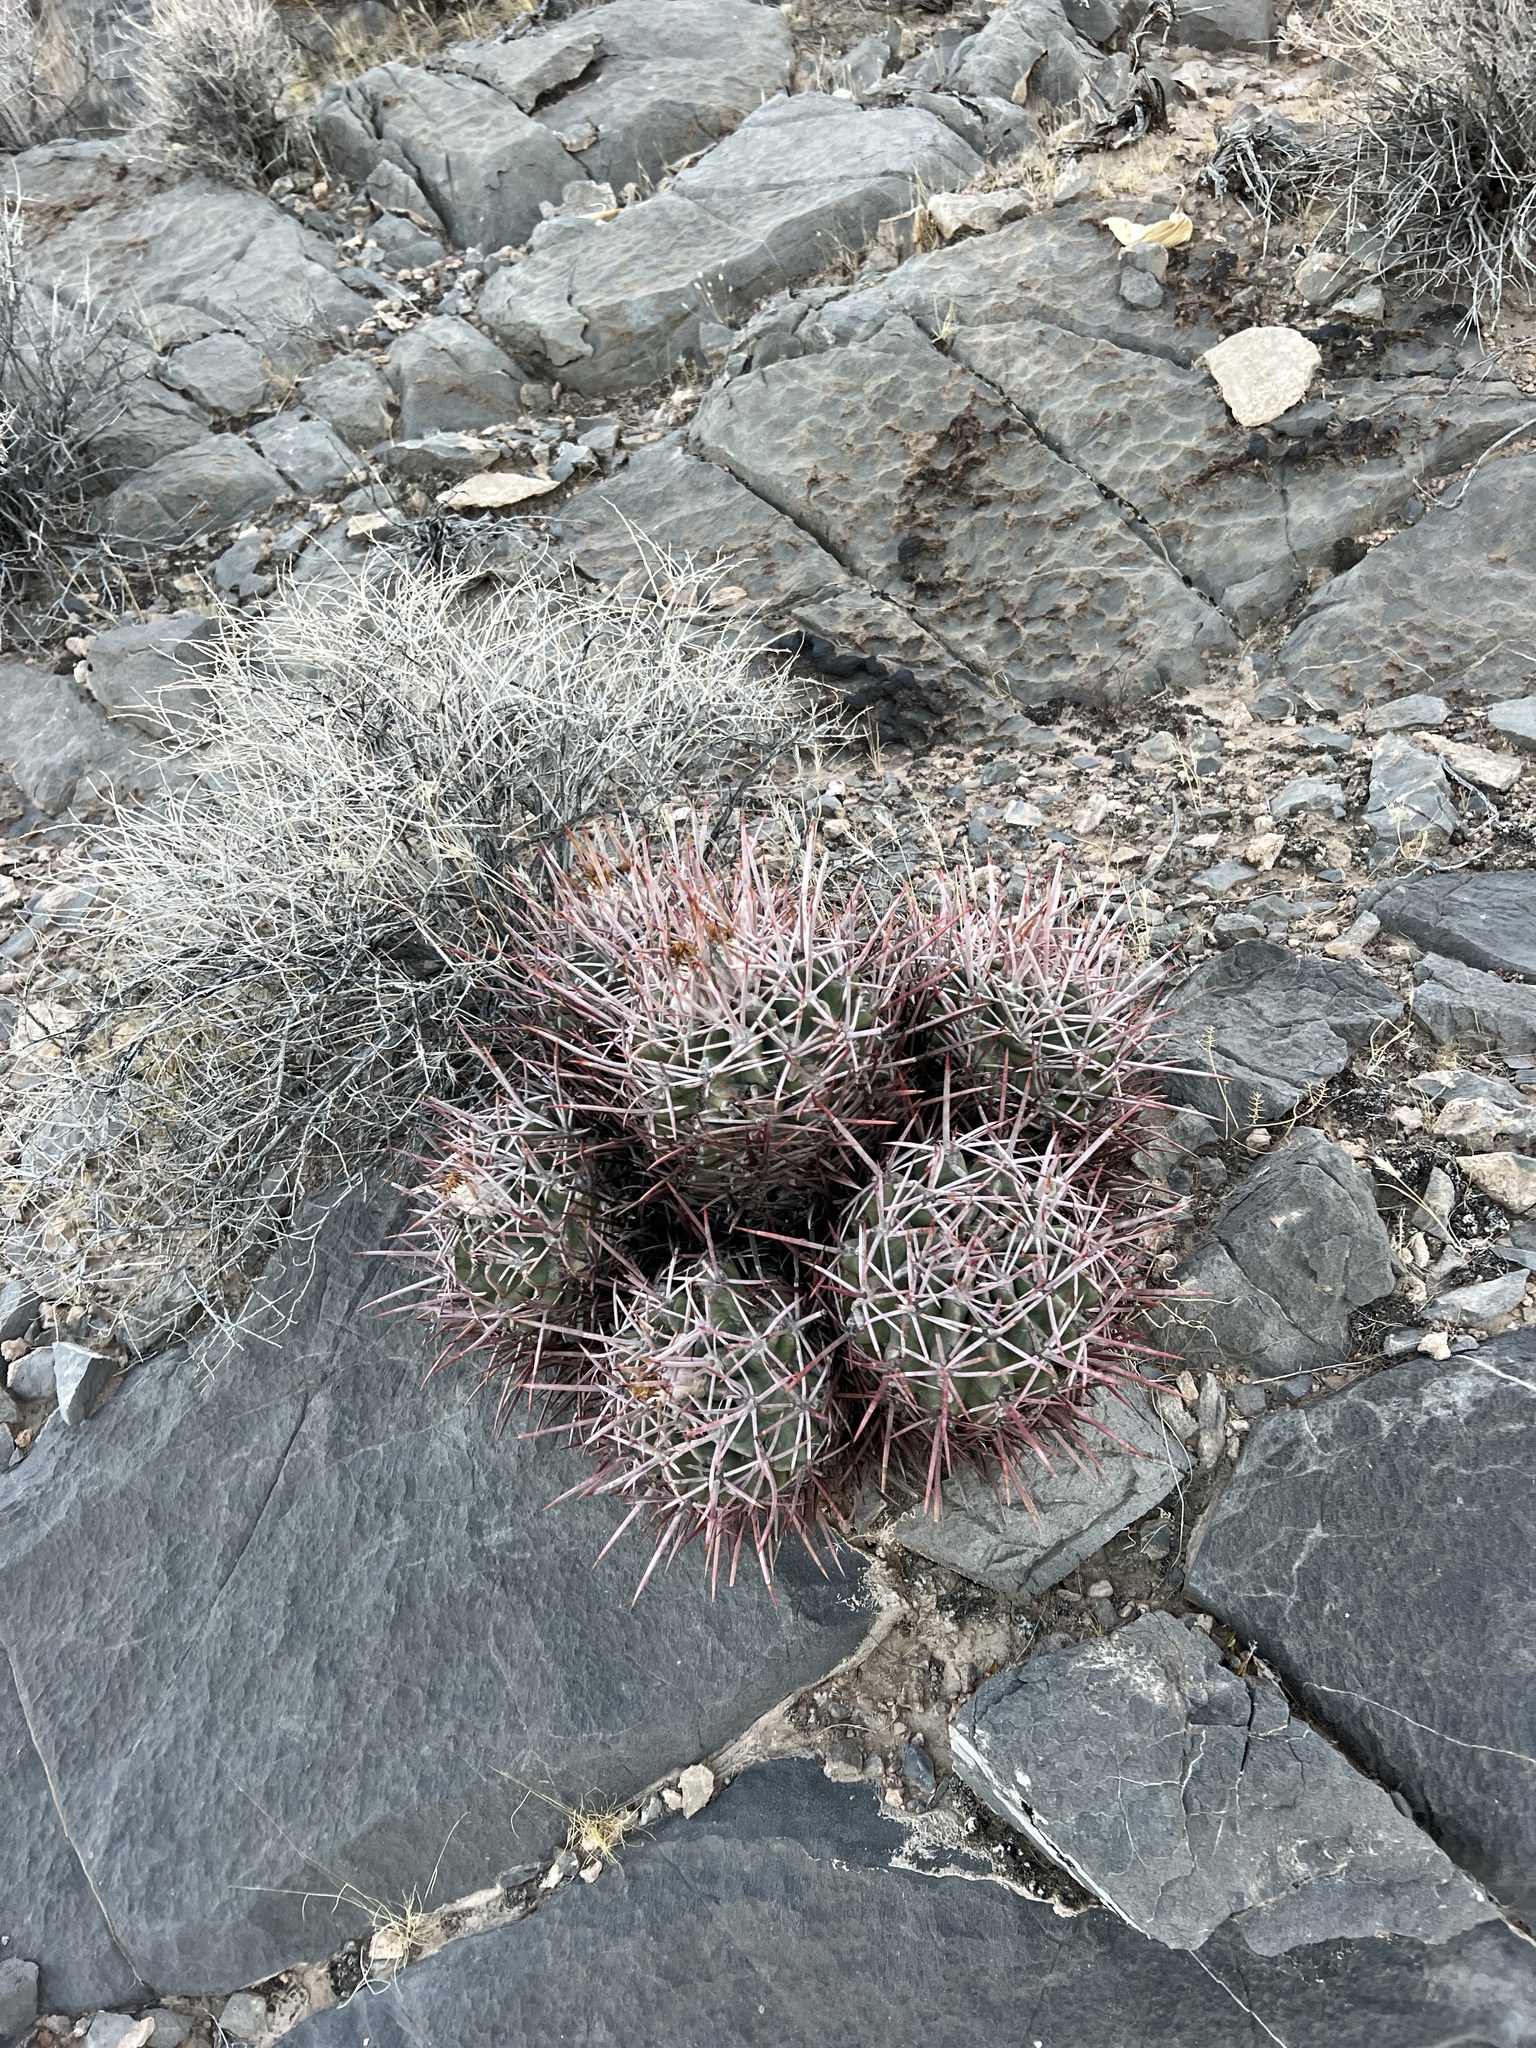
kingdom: Plantae
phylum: Tracheophyta
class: Magnoliopsida
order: Caryophyllales
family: Cactaceae
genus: Echinocactus
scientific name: Echinocactus polycephalus
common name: Cottontop cactus
